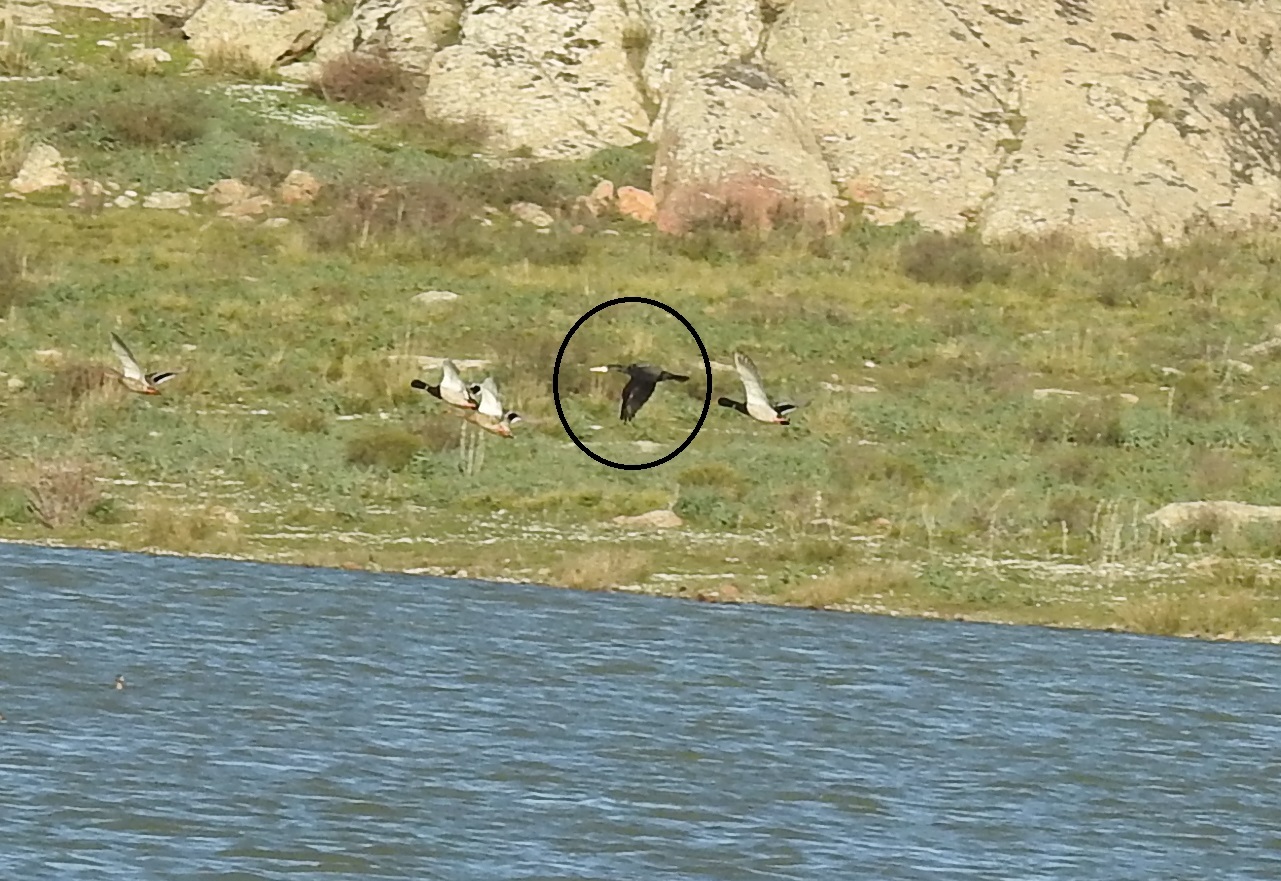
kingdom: Animalia
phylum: Chordata
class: Aves
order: Suliformes
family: Phalacrocoracidae
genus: Phalacrocorax
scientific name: Phalacrocorax carbo
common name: Great cormorant
